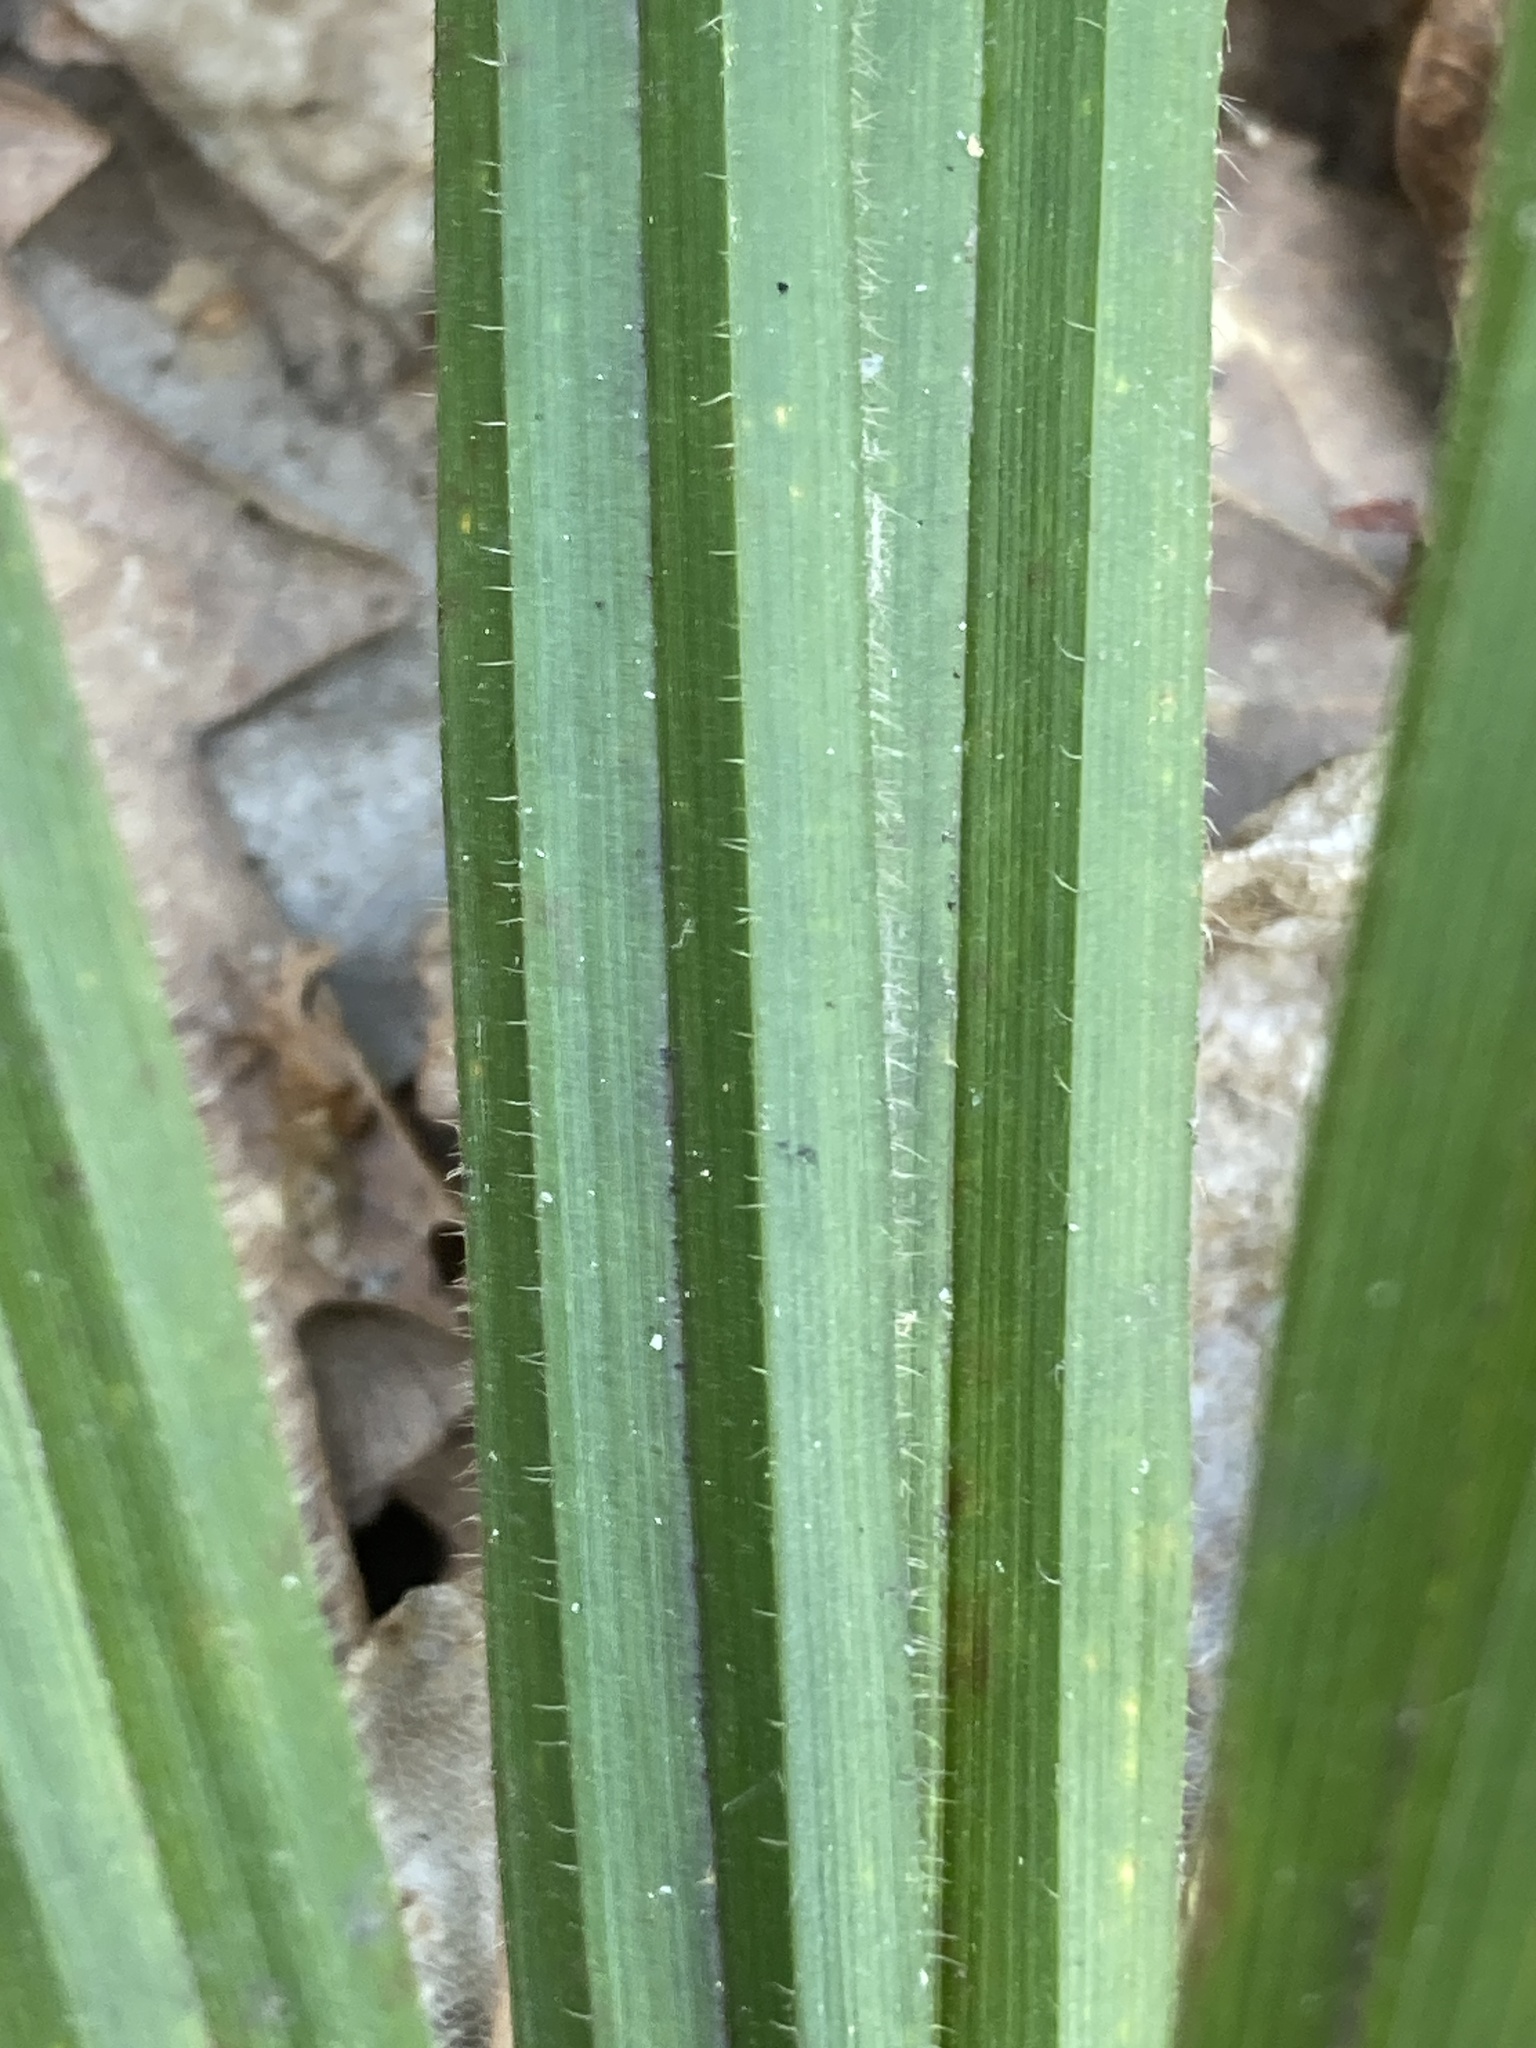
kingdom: Plantae
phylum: Tracheophyta
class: Liliopsida
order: Poales
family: Cyperaceae
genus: Carex
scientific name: Carex pilosa
